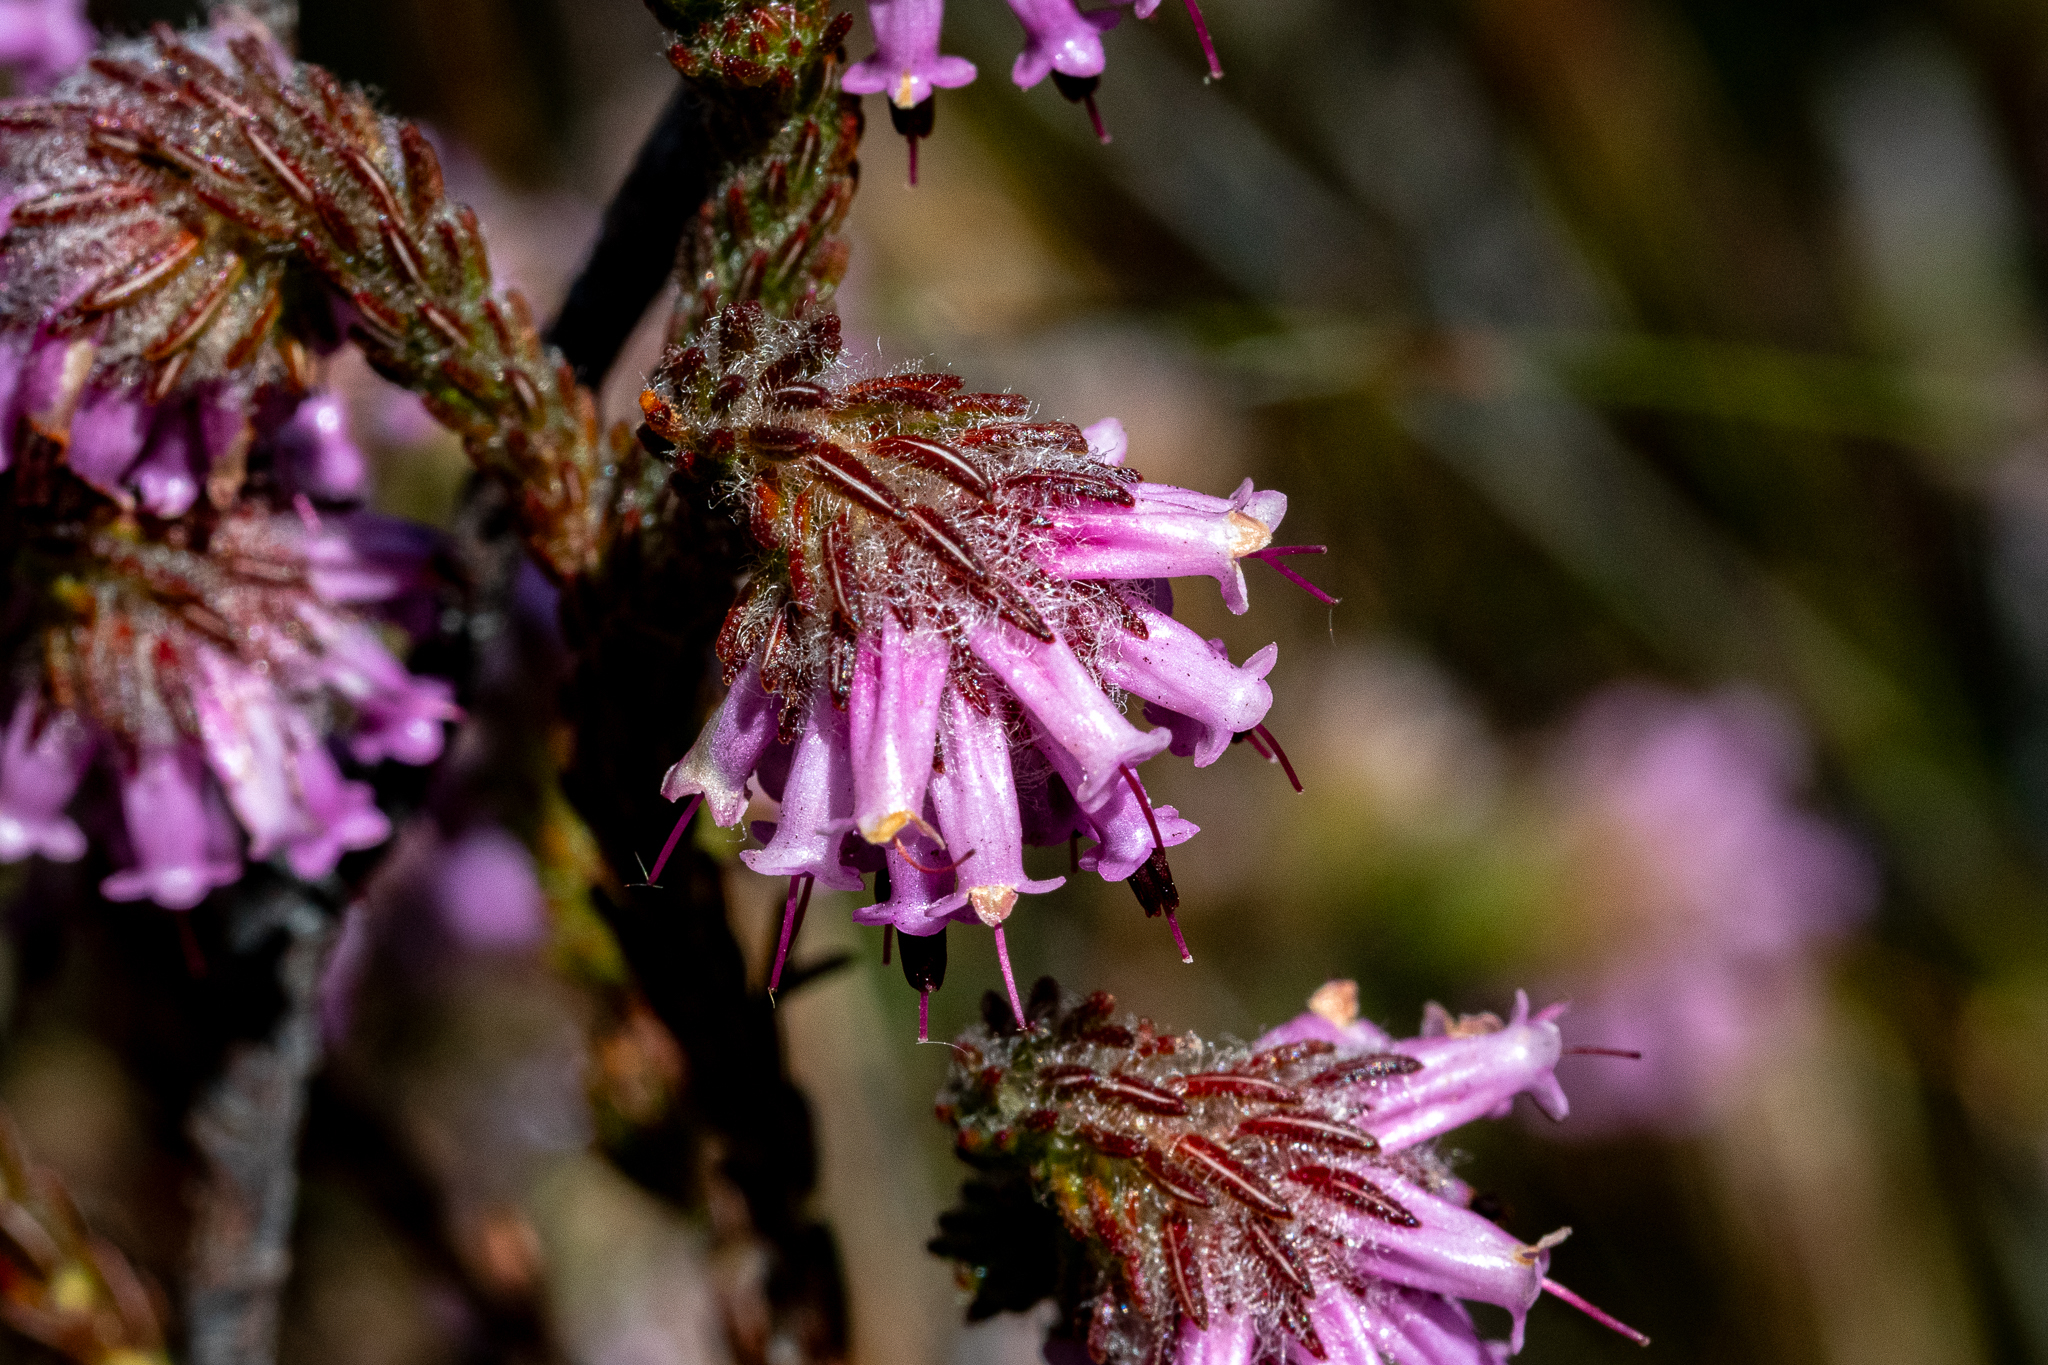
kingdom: Plantae
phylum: Tracheophyta
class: Magnoliopsida
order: Ericales
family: Ericaceae
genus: Erica
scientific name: Erica barbigeroides
